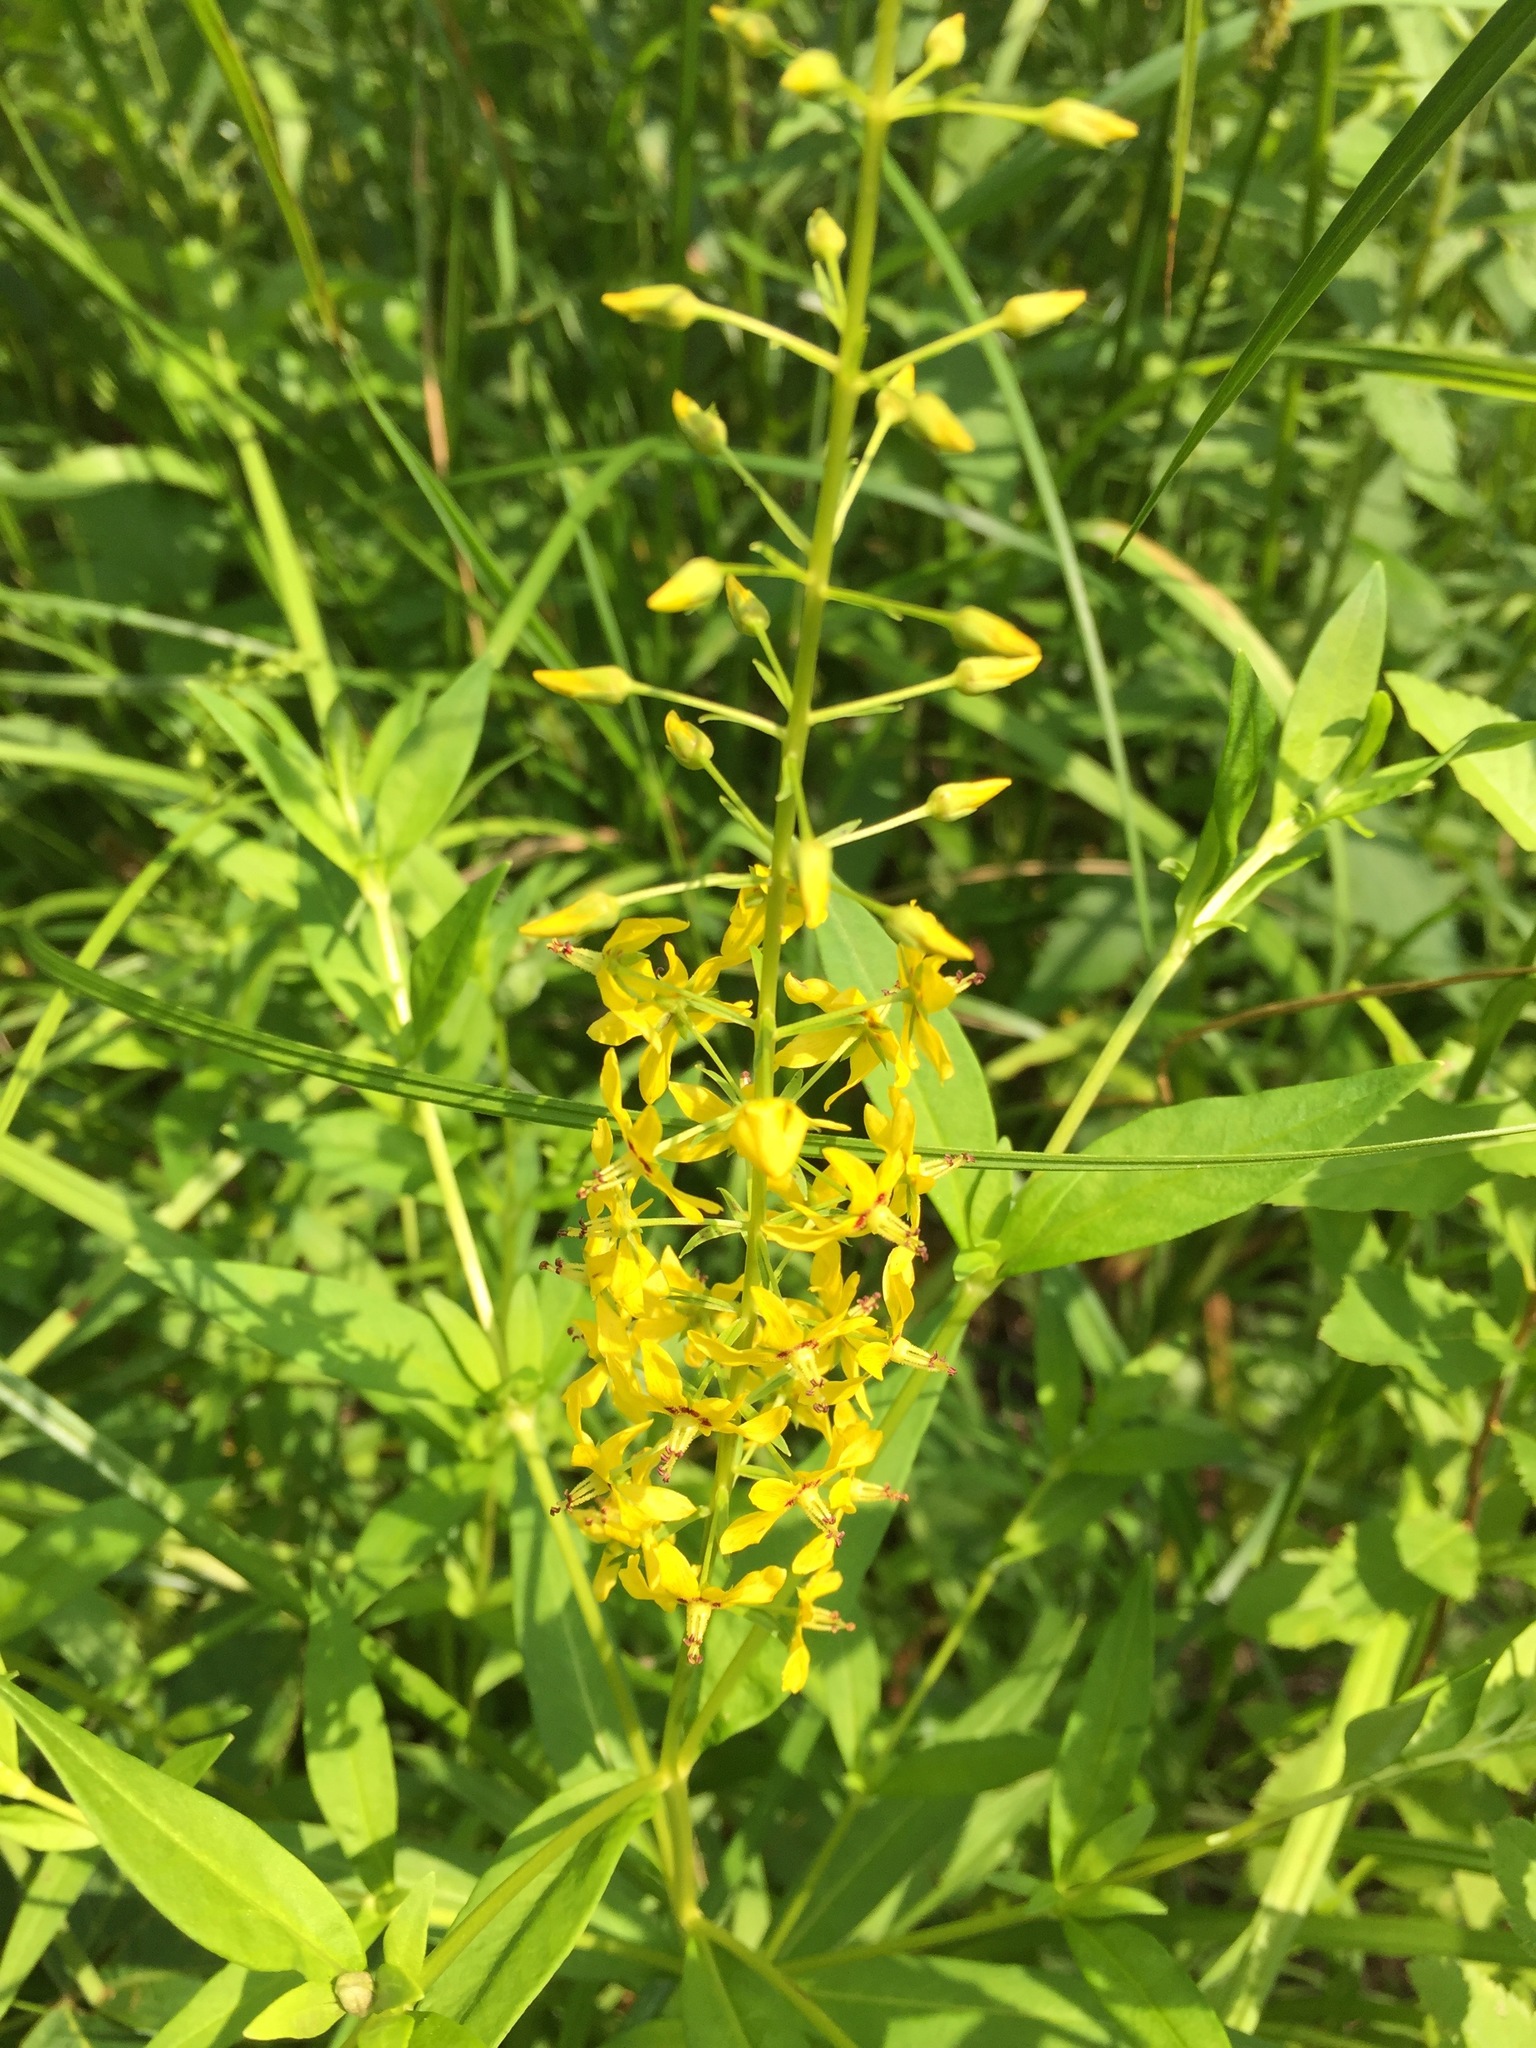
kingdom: Plantae
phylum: Tracheophyta
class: Magnoliopsida
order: Ericales
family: Primulaceae
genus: Lysimachia
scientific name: Lysimachia terrestris
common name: Lake loosestrife
